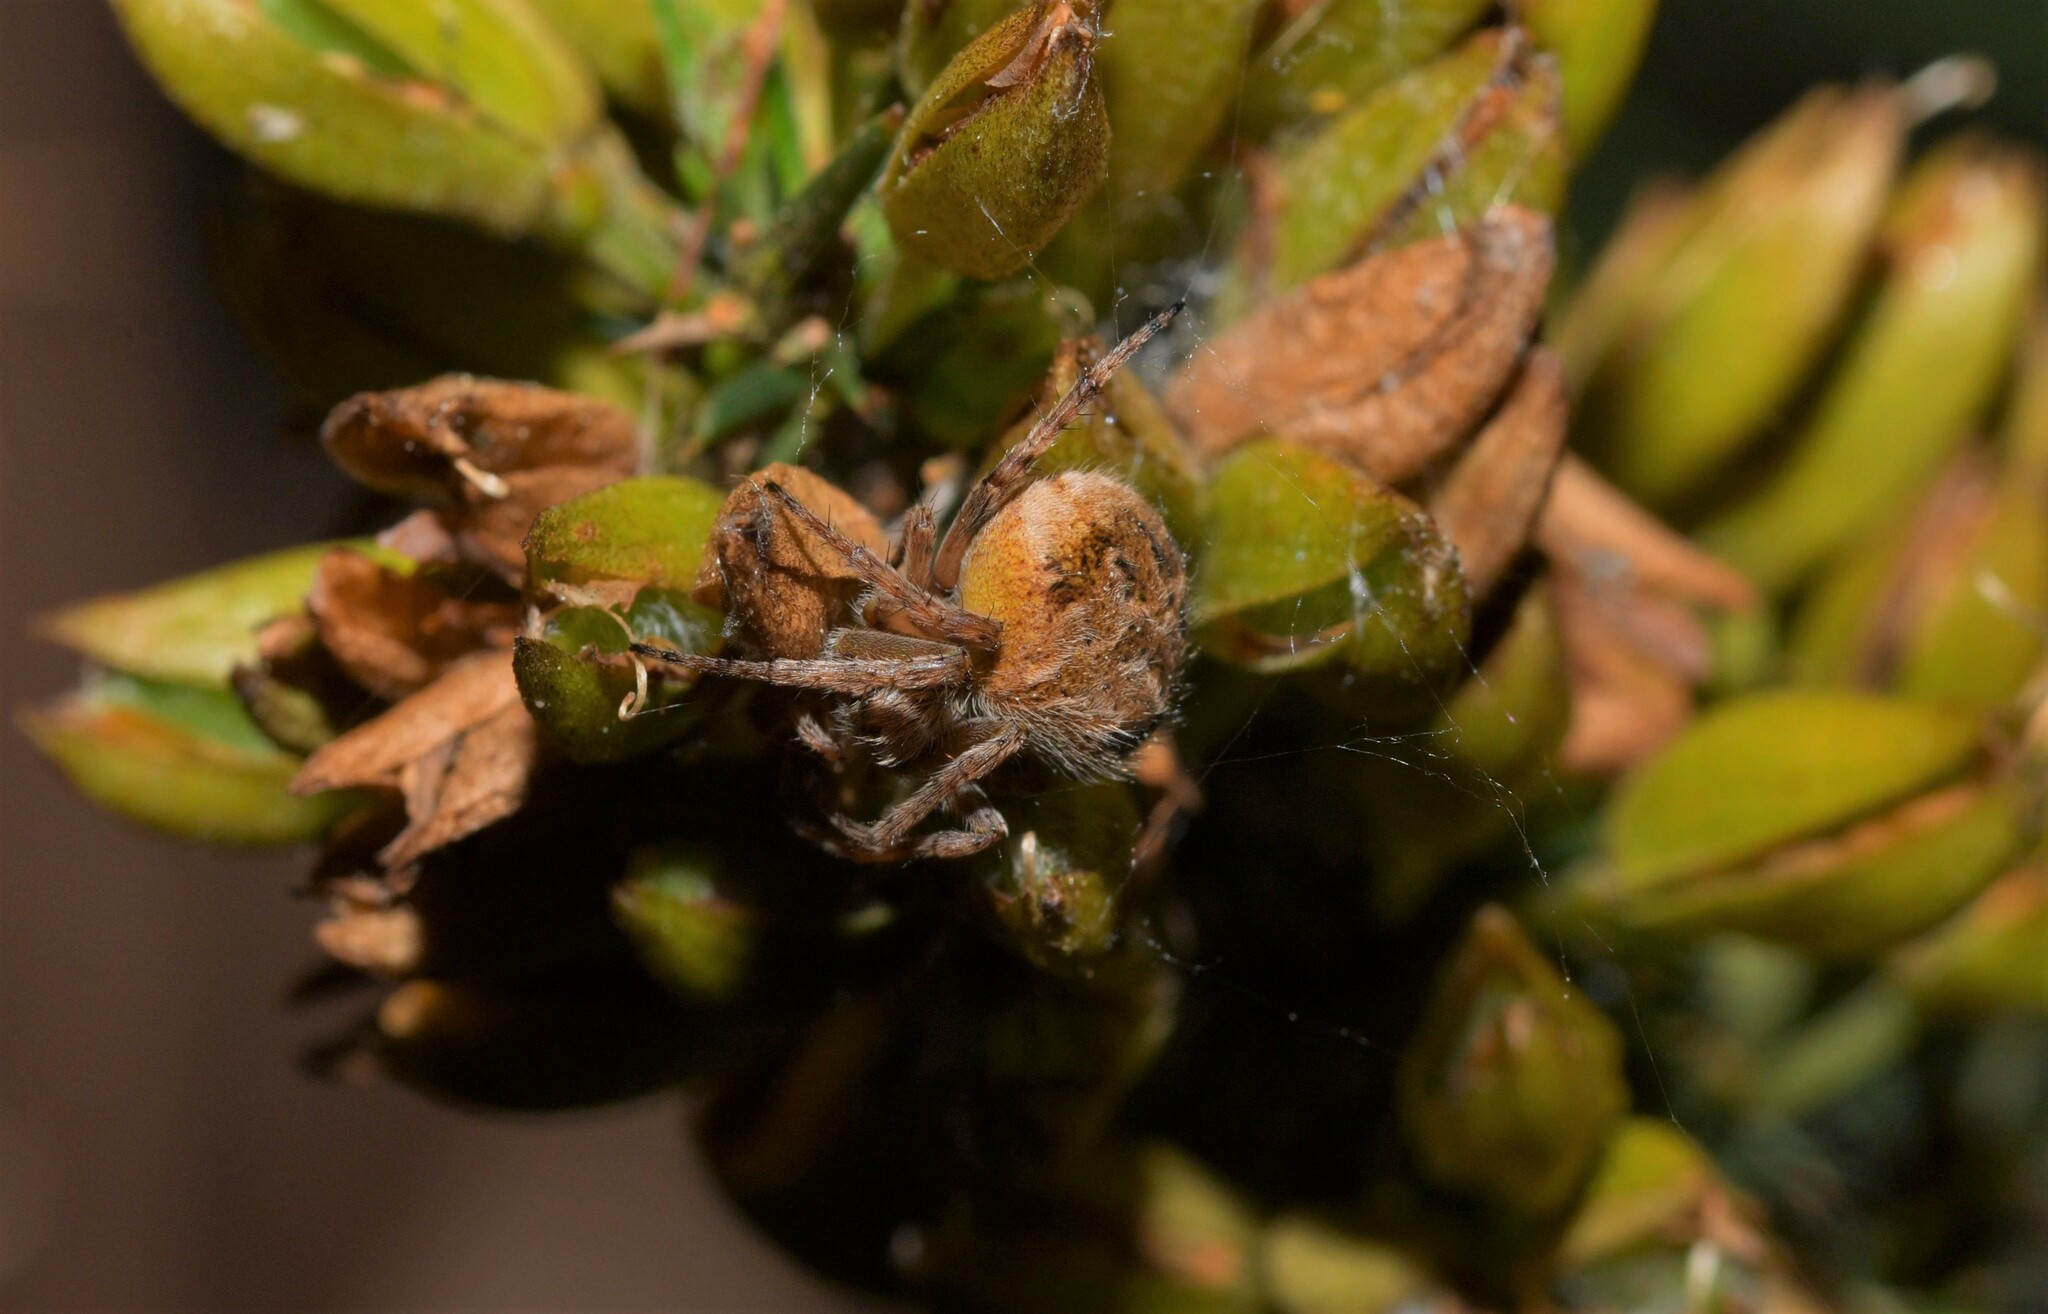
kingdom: Animalia
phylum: Arthropoda
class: Arachnida
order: Araneae
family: Araneidae
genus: Agalenatea
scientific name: Agalenatea redii
